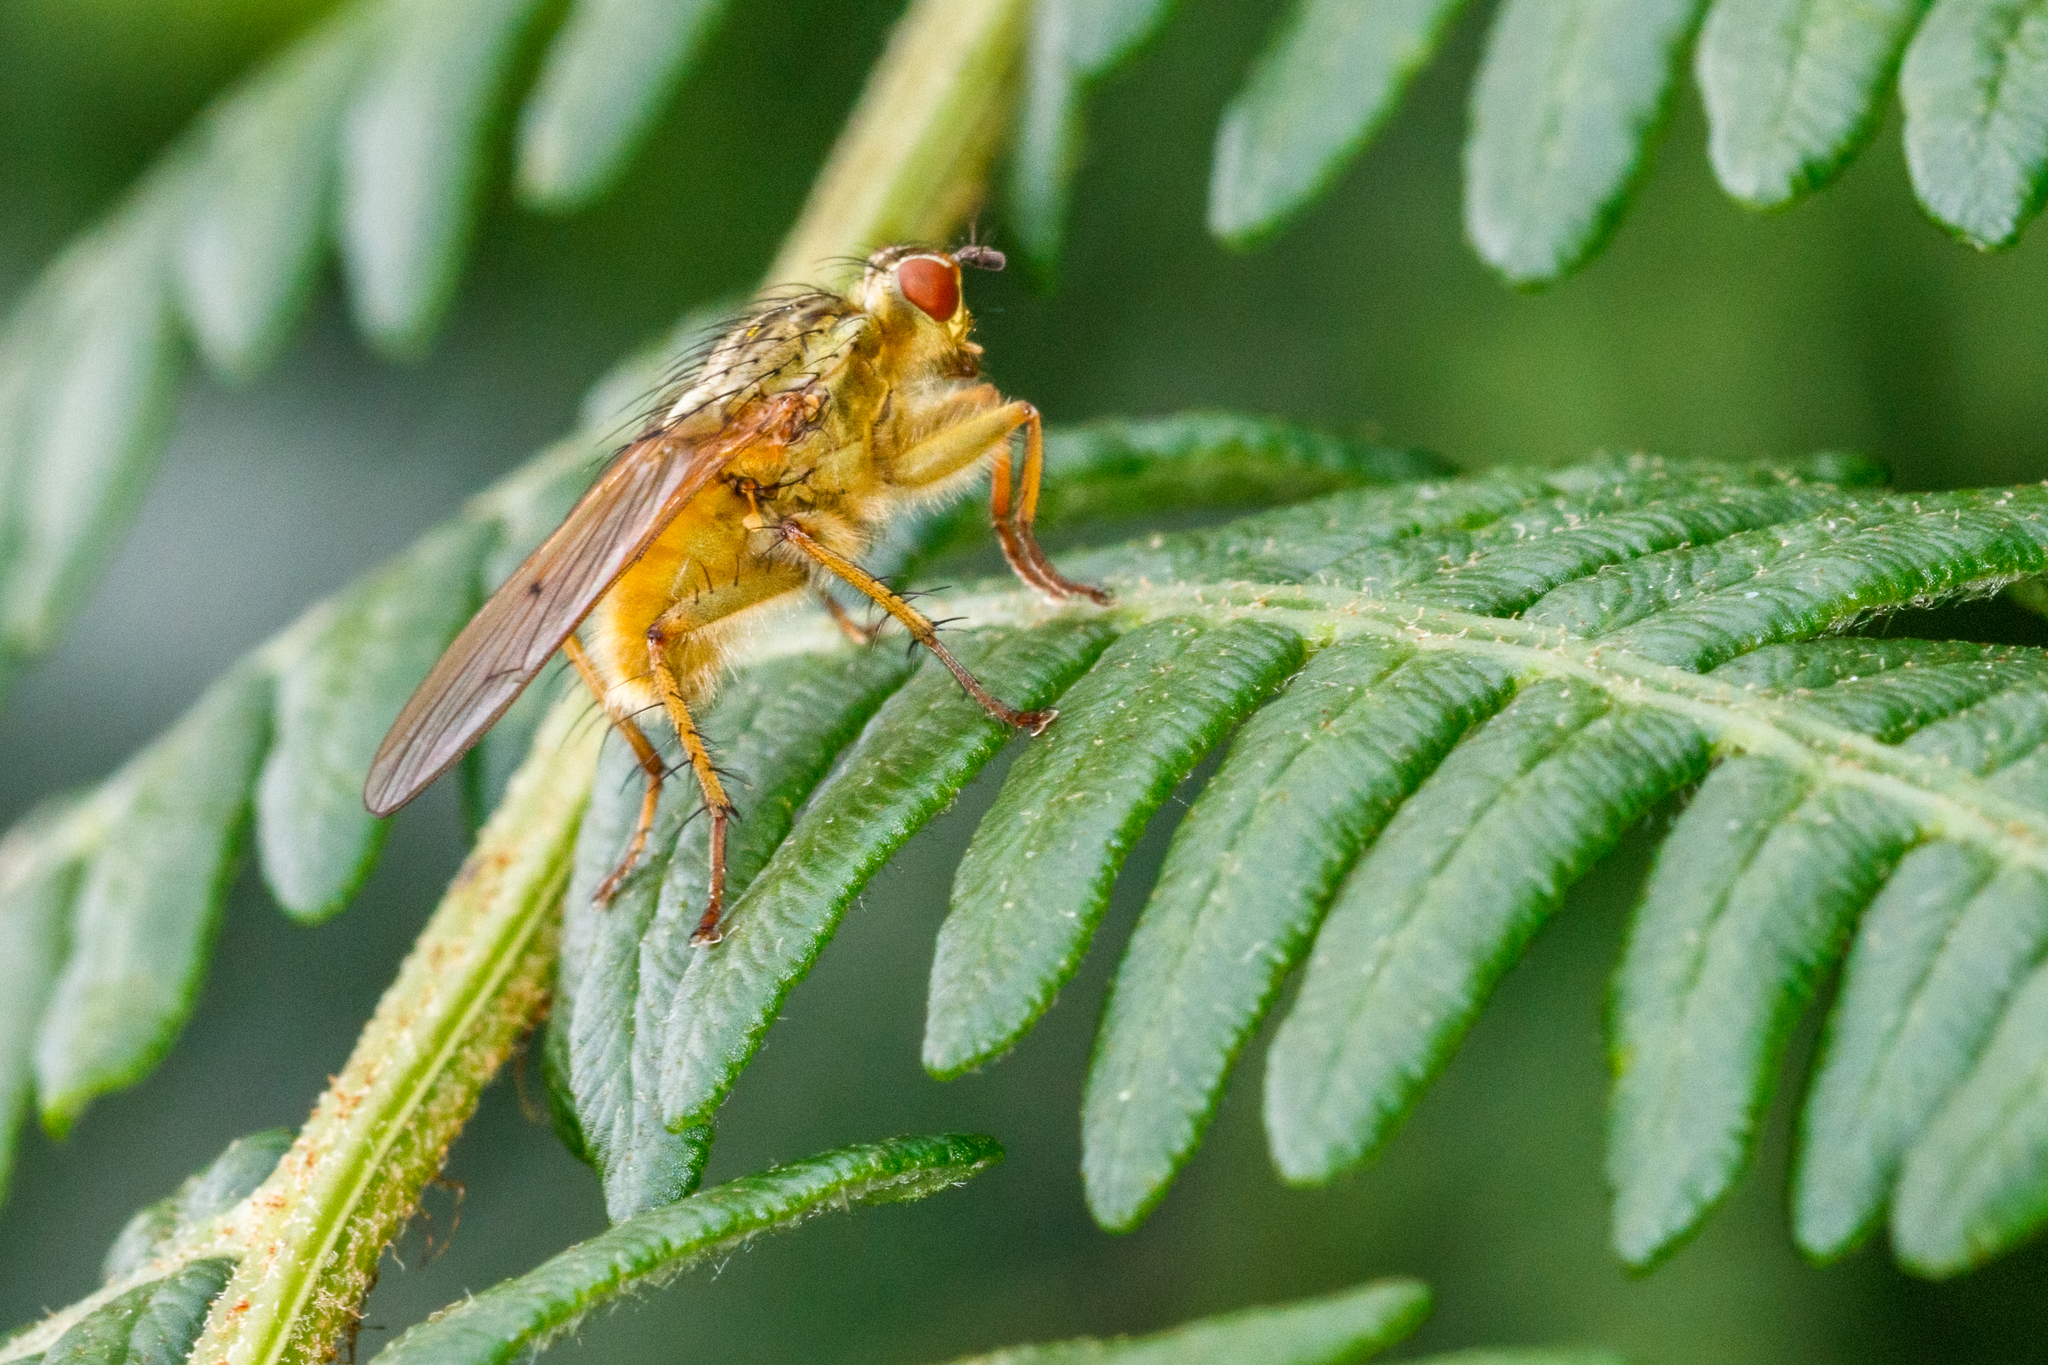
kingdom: Animalia
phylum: Arthropoda
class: Insecta
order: Diptera
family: Scathophagidae
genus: Scathophaga
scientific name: Scathophaga stercoraria
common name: Yellow dung fly
